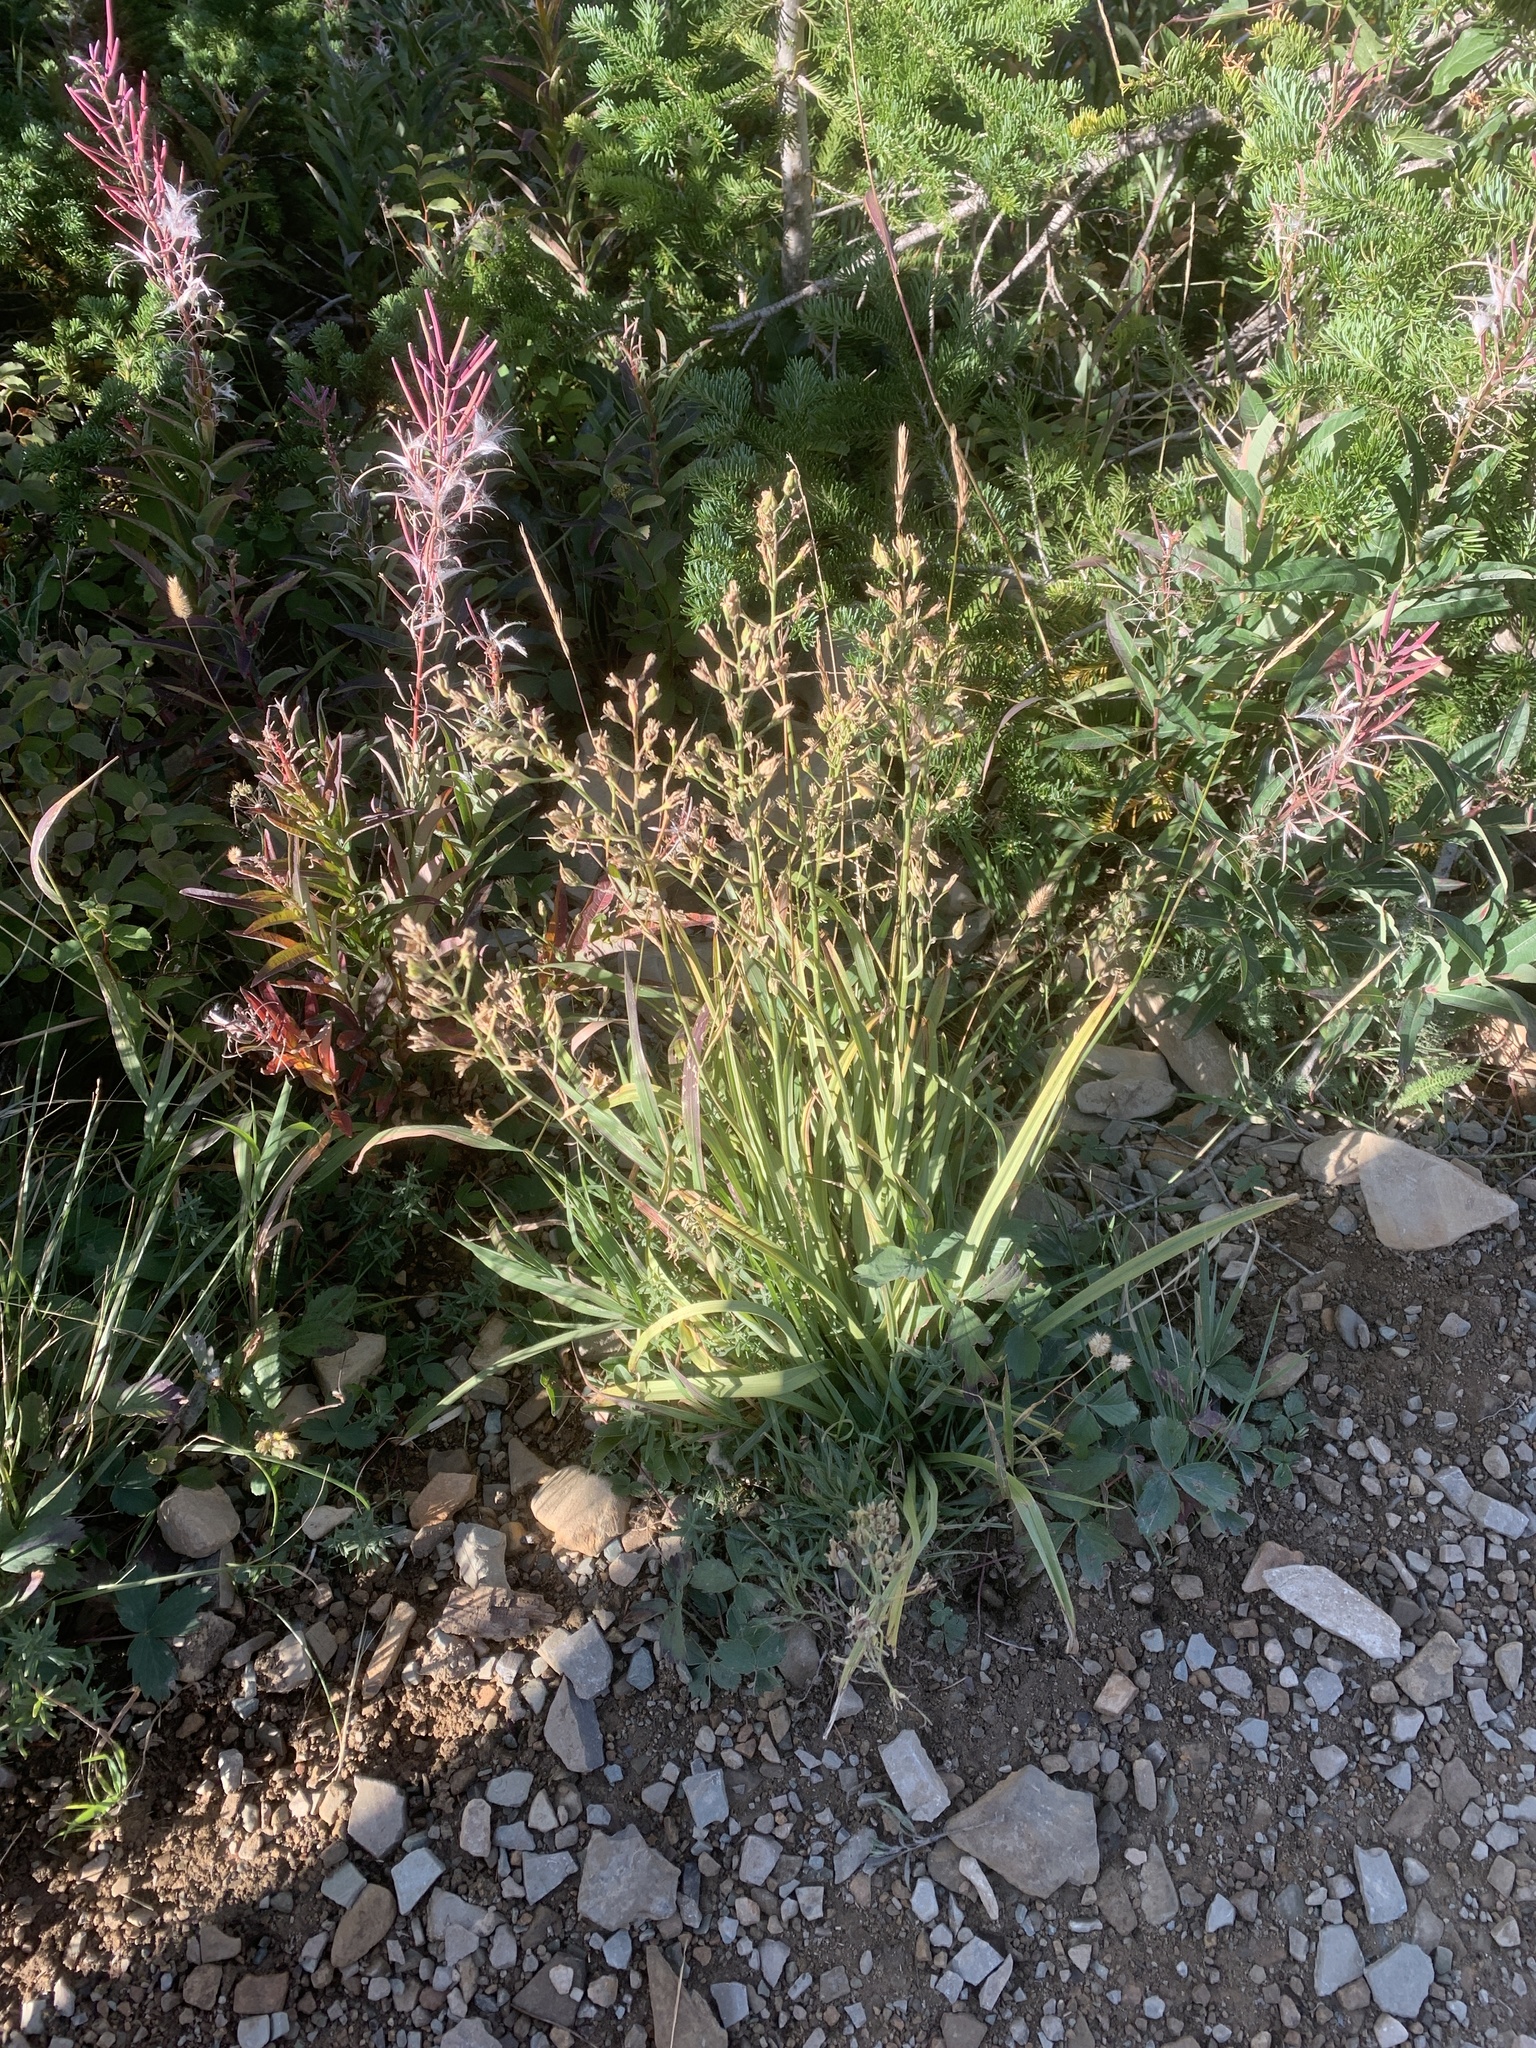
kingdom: Plantae
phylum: Tracheophyta
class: Liliopsida
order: Liliales
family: Melanthiaceae
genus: Anticlea
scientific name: Anticlea elegans
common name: Mountain death camas
